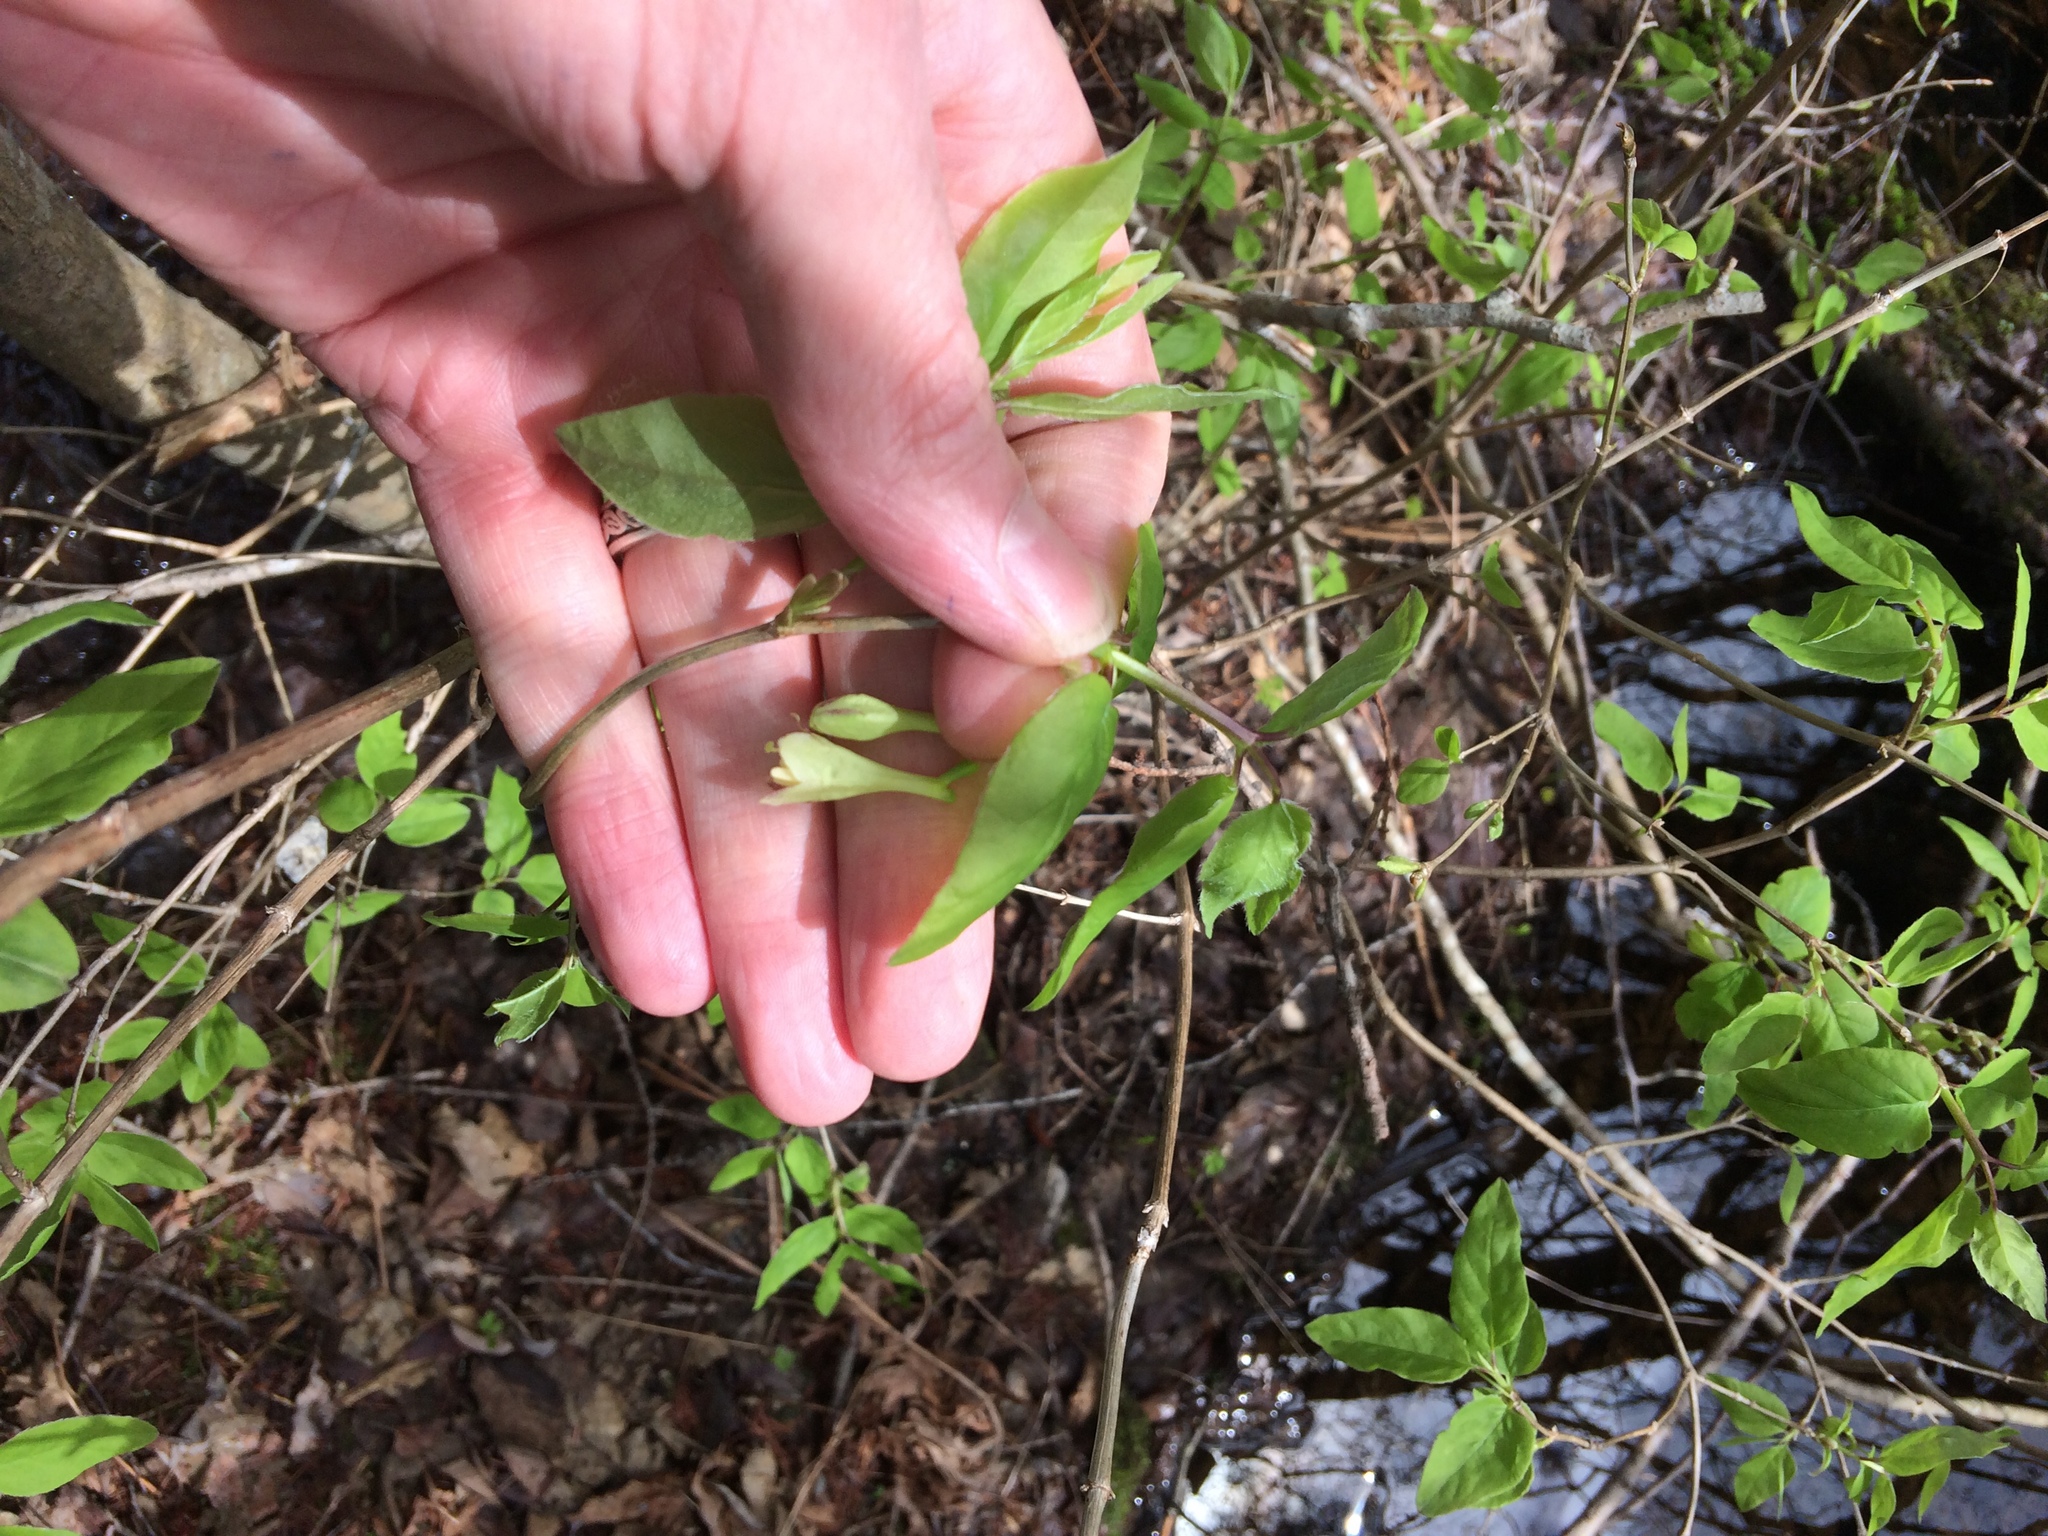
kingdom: Plantae
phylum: Tracheophyta
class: Magnoliopsida
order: Dipsacales
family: Caprifoliaceae
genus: Lonicera
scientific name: Lonicera canadensis
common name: American fly-honeysuckle
